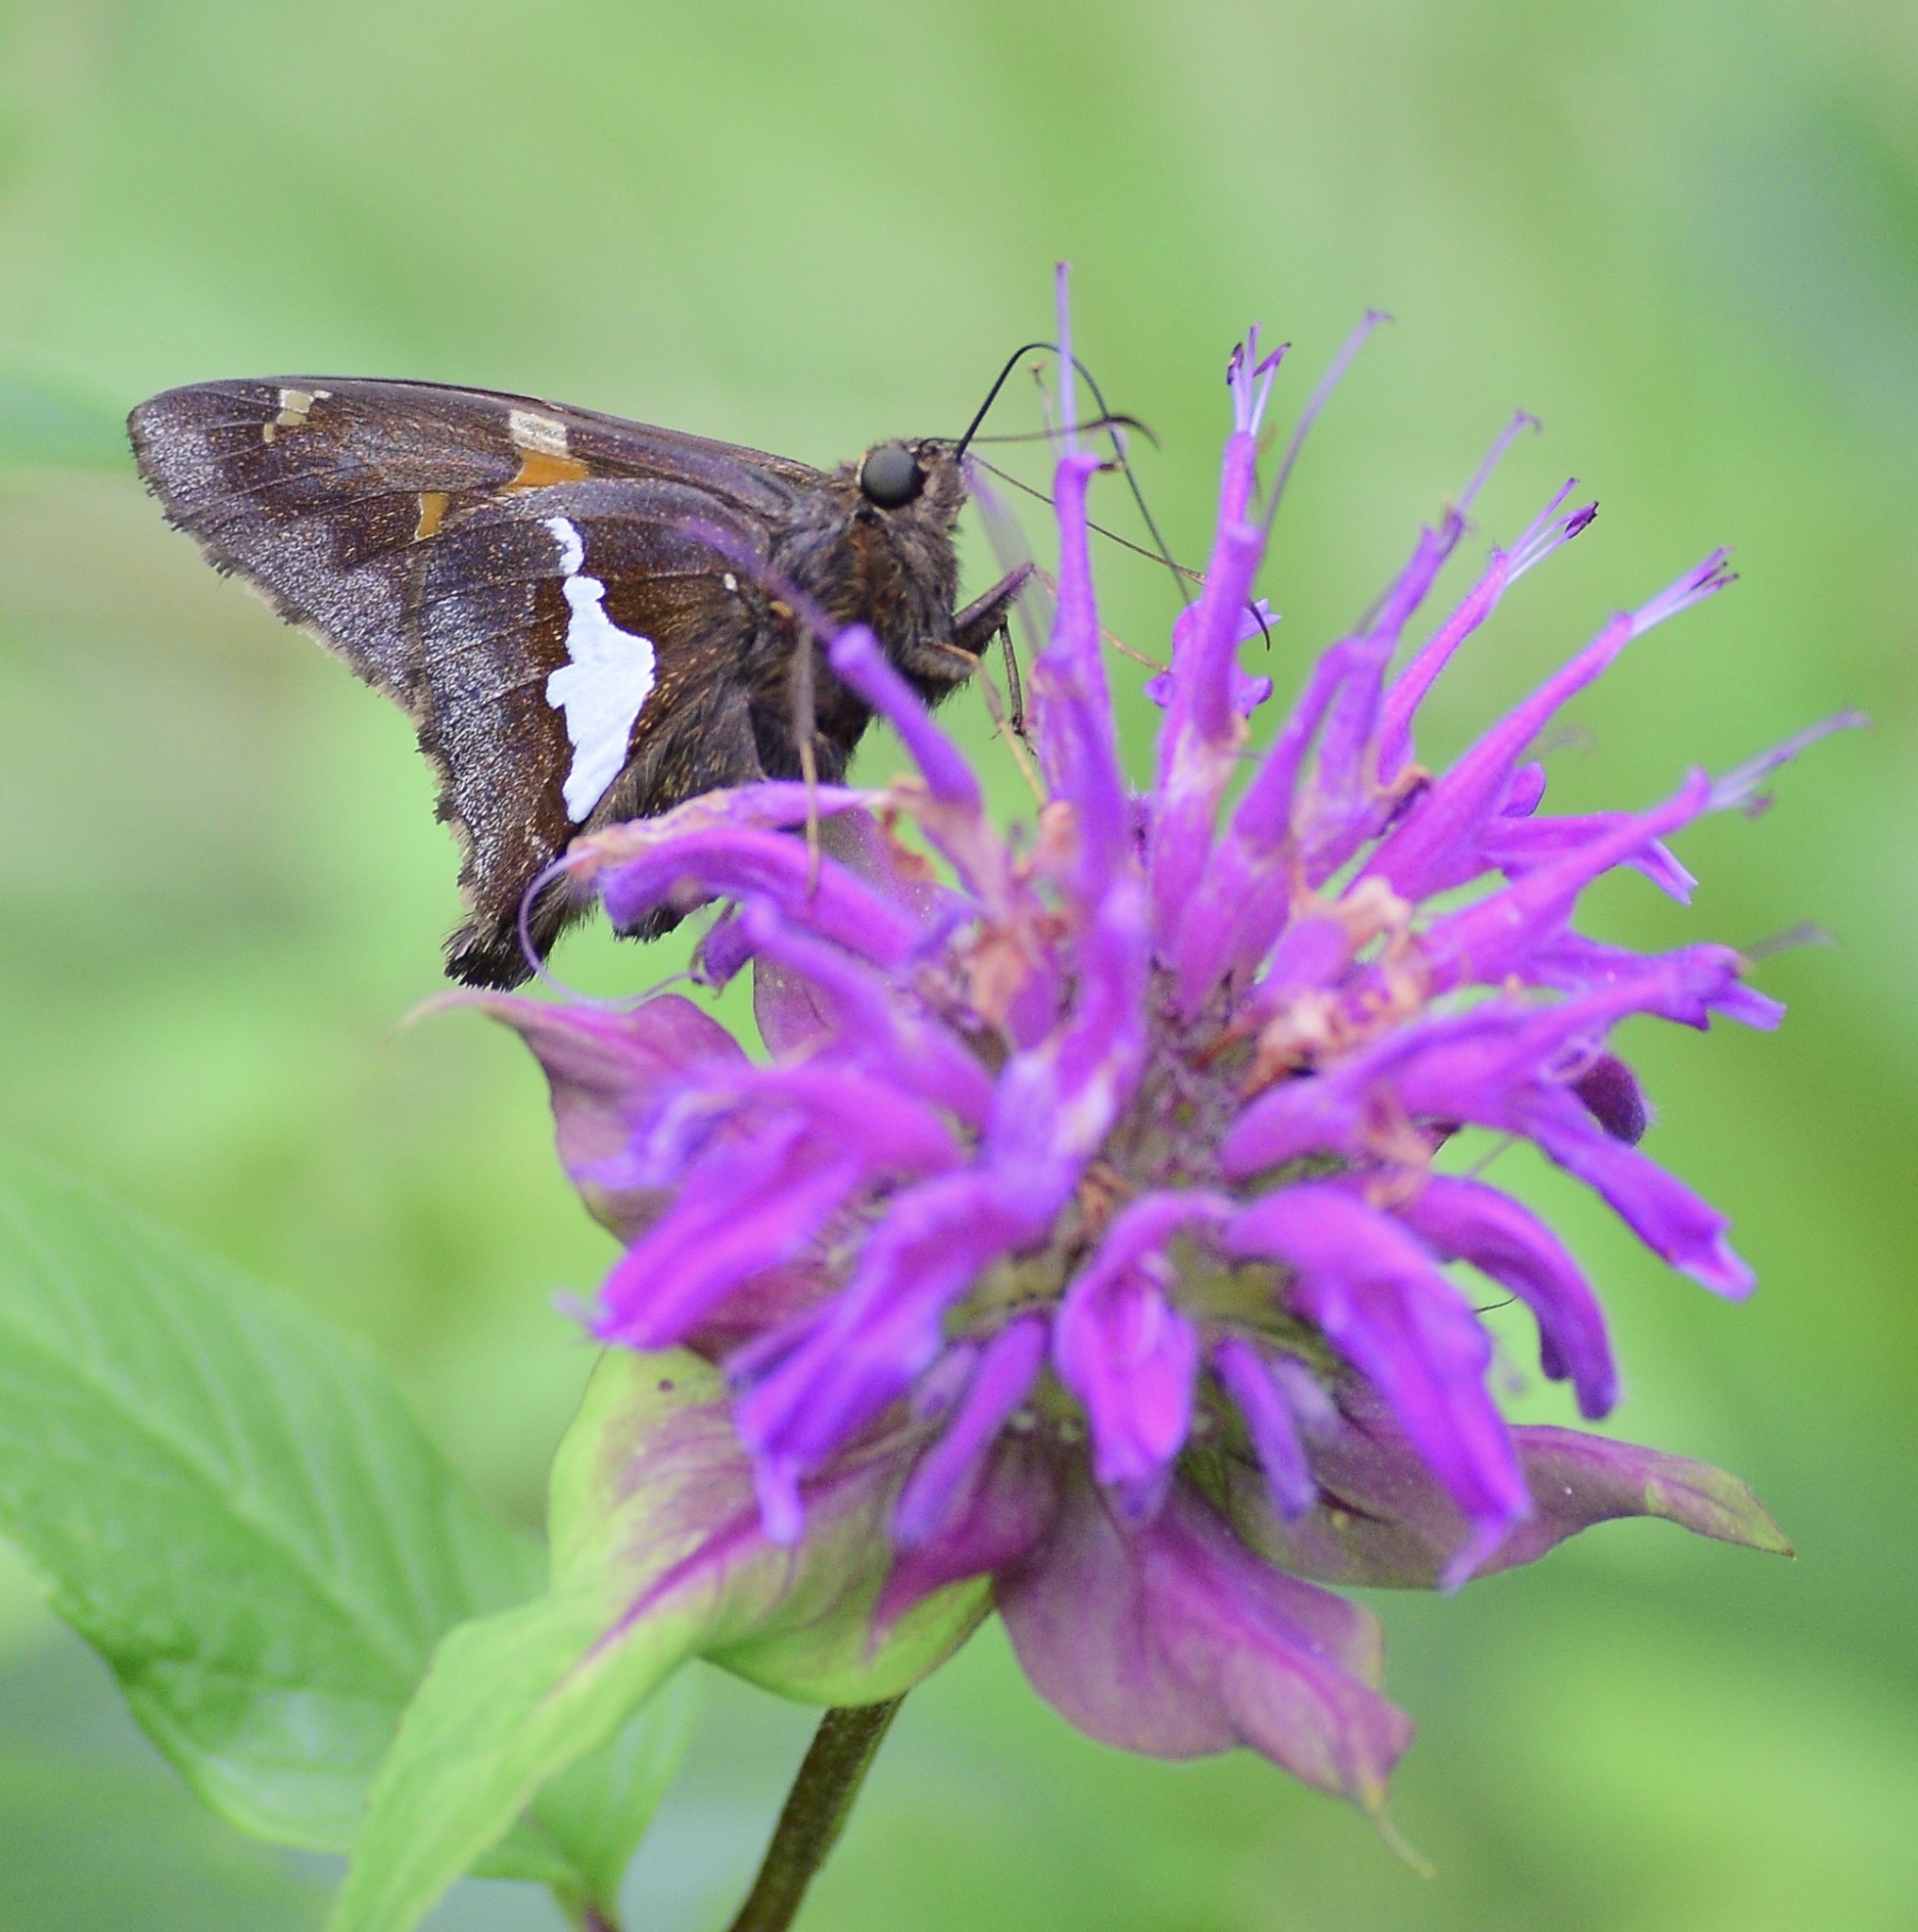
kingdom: Animalia
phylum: Arthropoda
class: Insecta
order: Lepidoptera
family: Hesperiidae
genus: Epargyreus
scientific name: Epargyreus clarus
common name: Silver-spotted skipper
